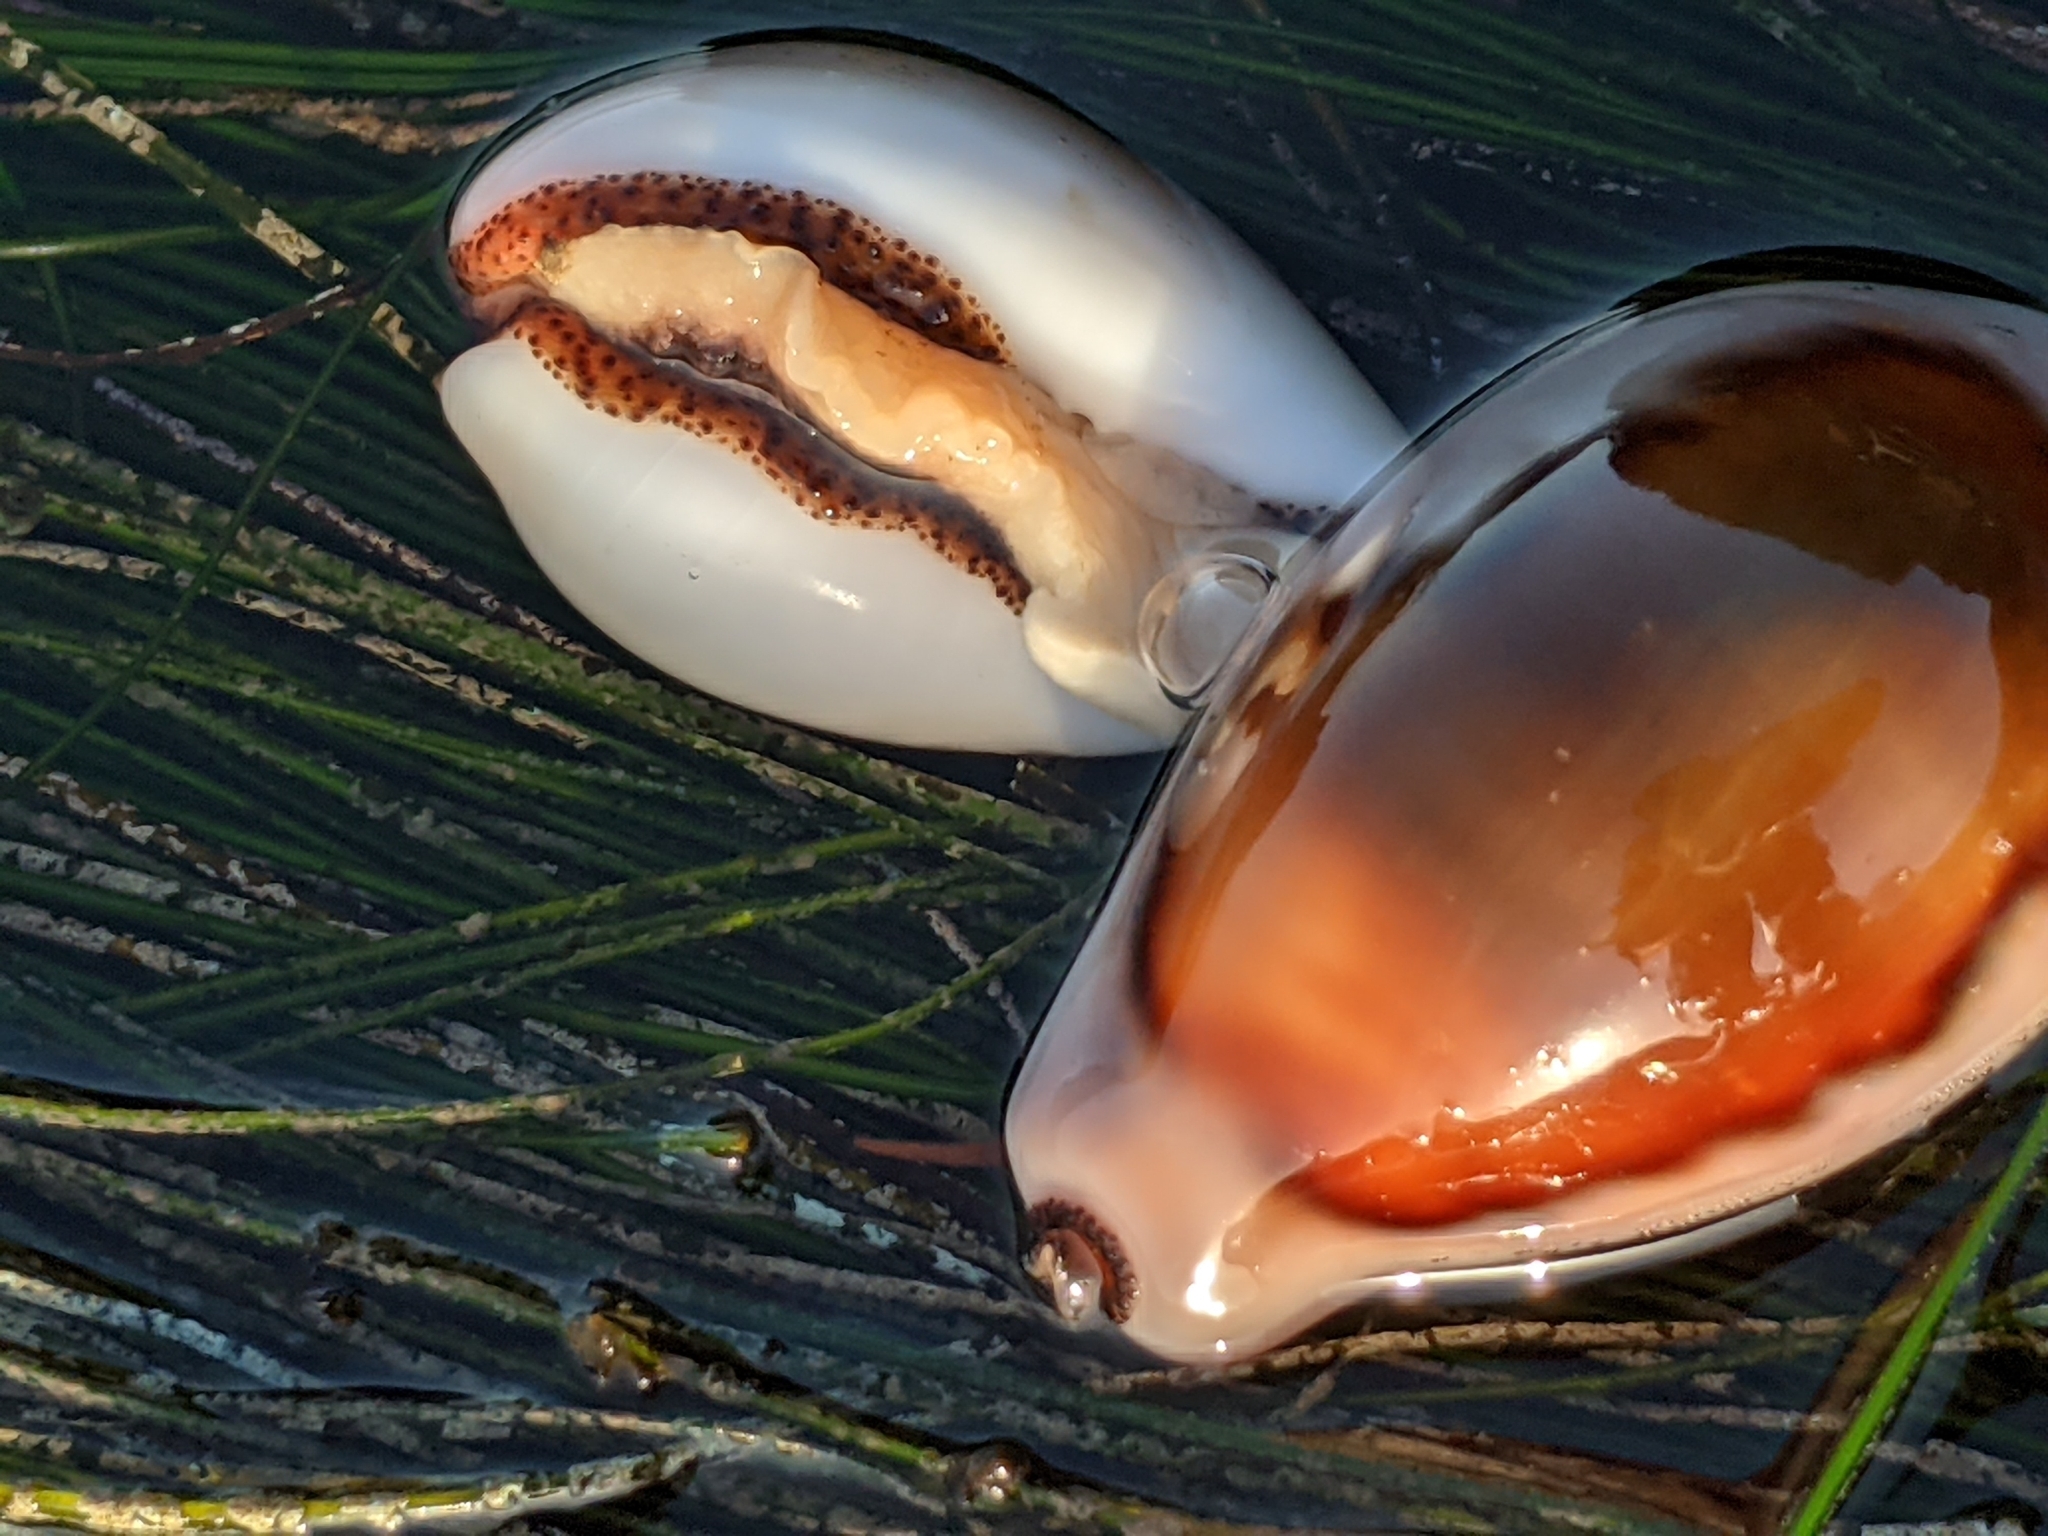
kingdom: Animalia
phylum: Mollusca
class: Gastropoda
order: Littorinimorpha
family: Cypraeidae
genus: Neobernaya
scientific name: Neobernaya spadicea
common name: Chestnut cowrie
